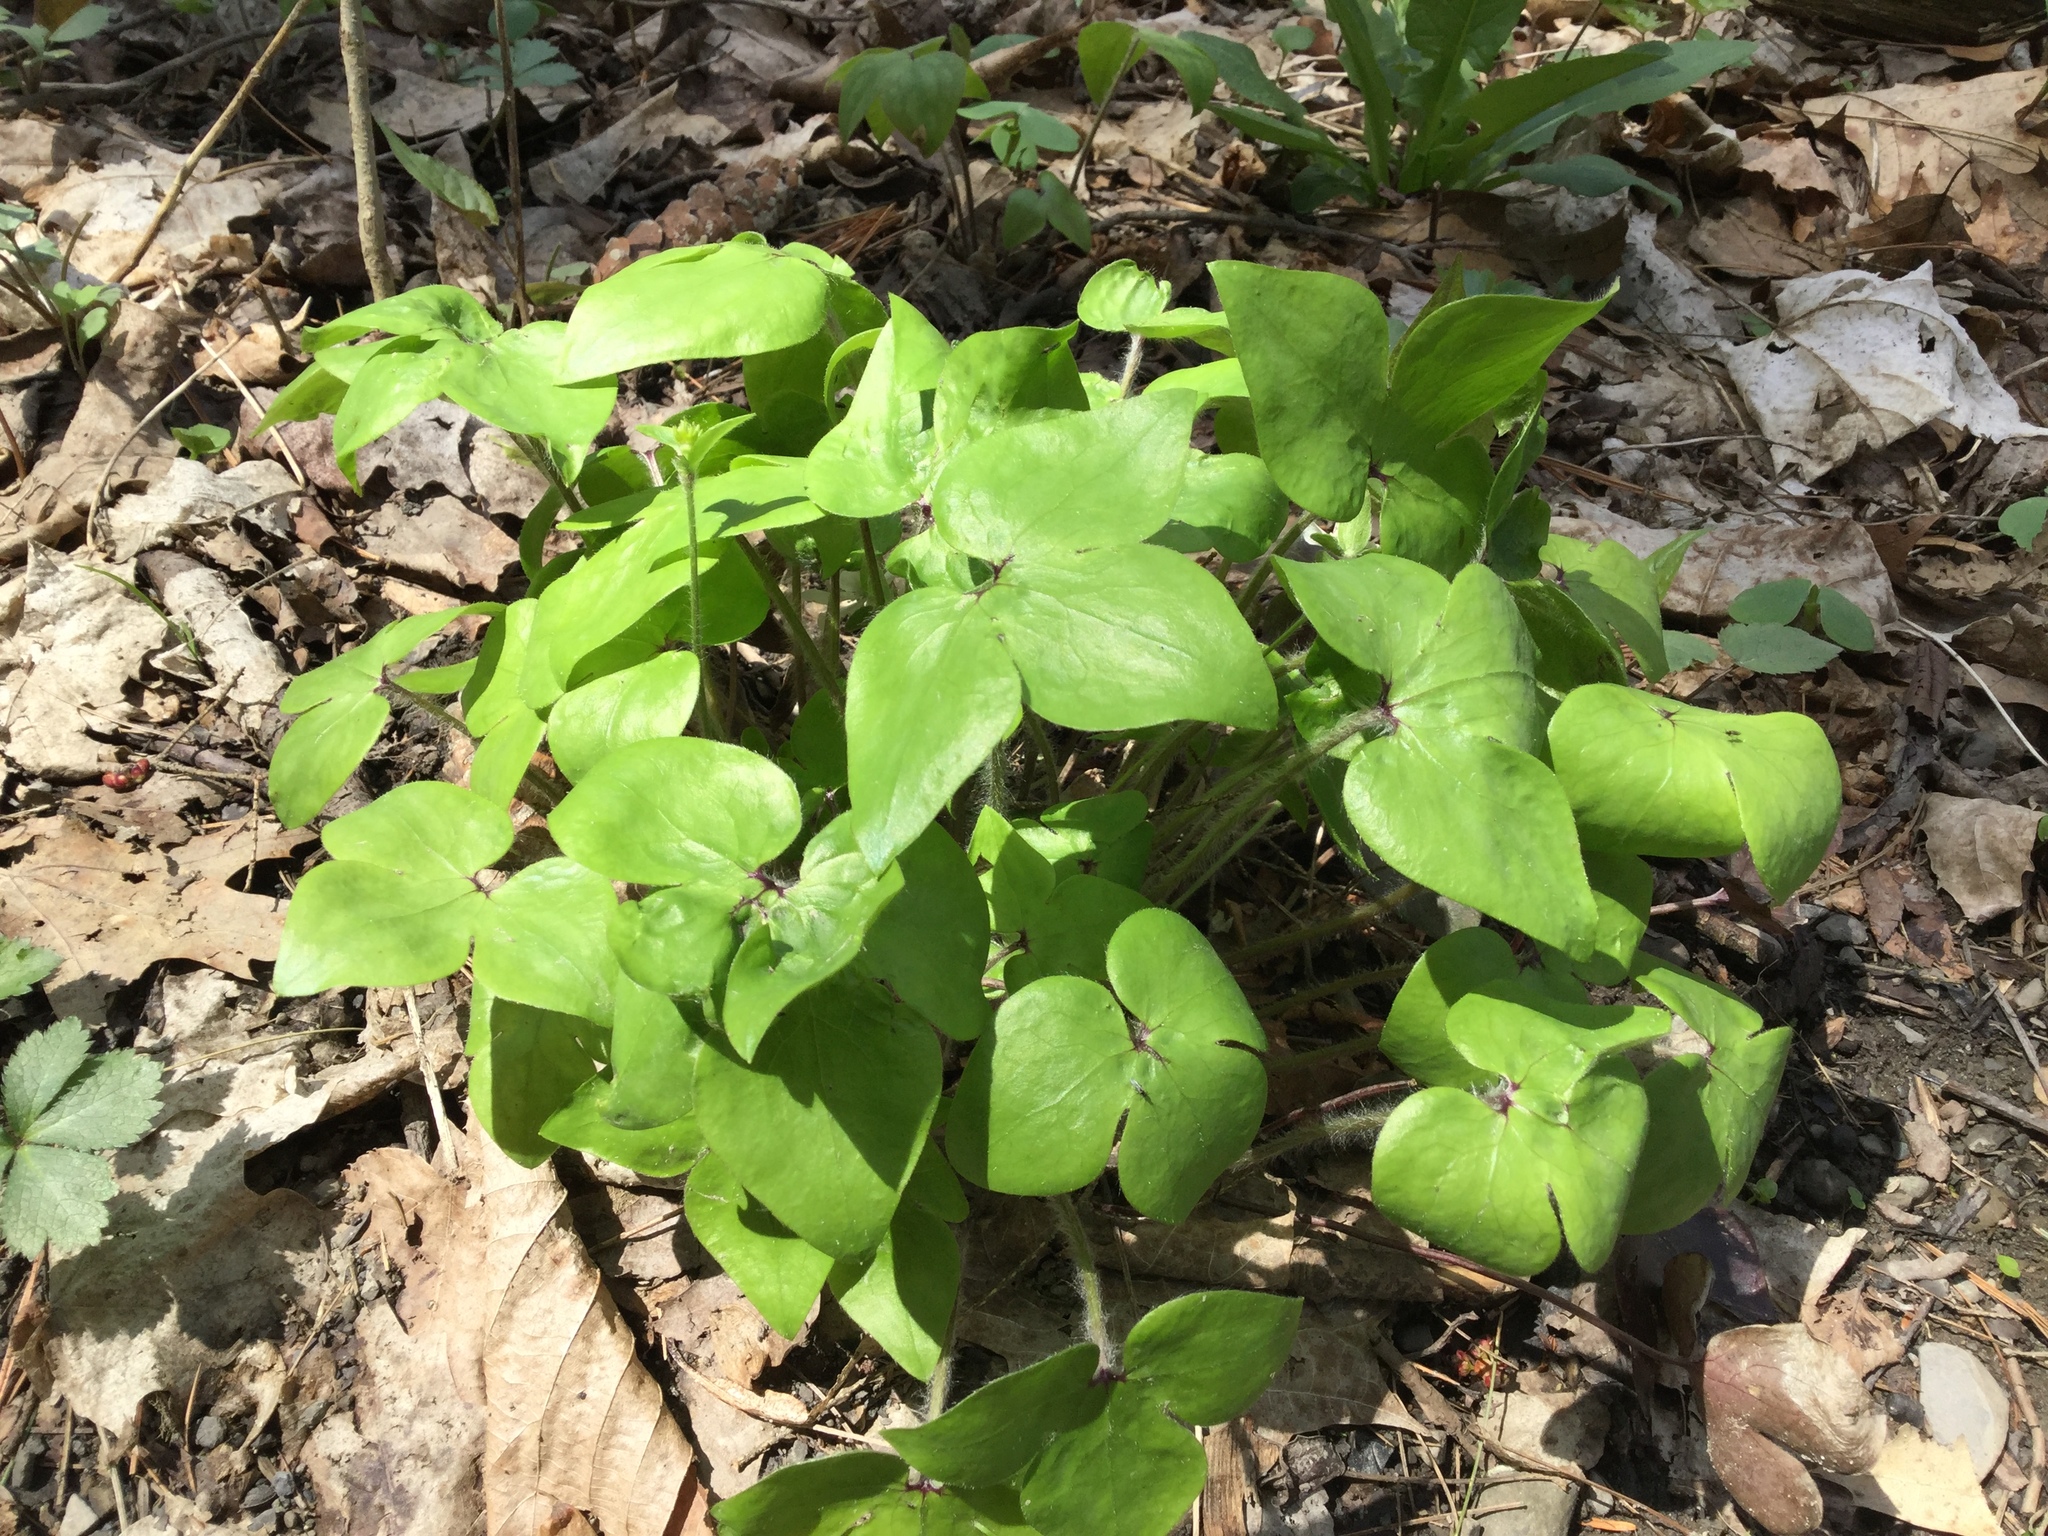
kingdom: Plantae
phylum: Tracheophyta
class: Magnoliopsida
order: Ranunculales
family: Ranunculaceae
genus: Hepatica
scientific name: Hepatica acutiloba
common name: Sharp-lobed hepatica
